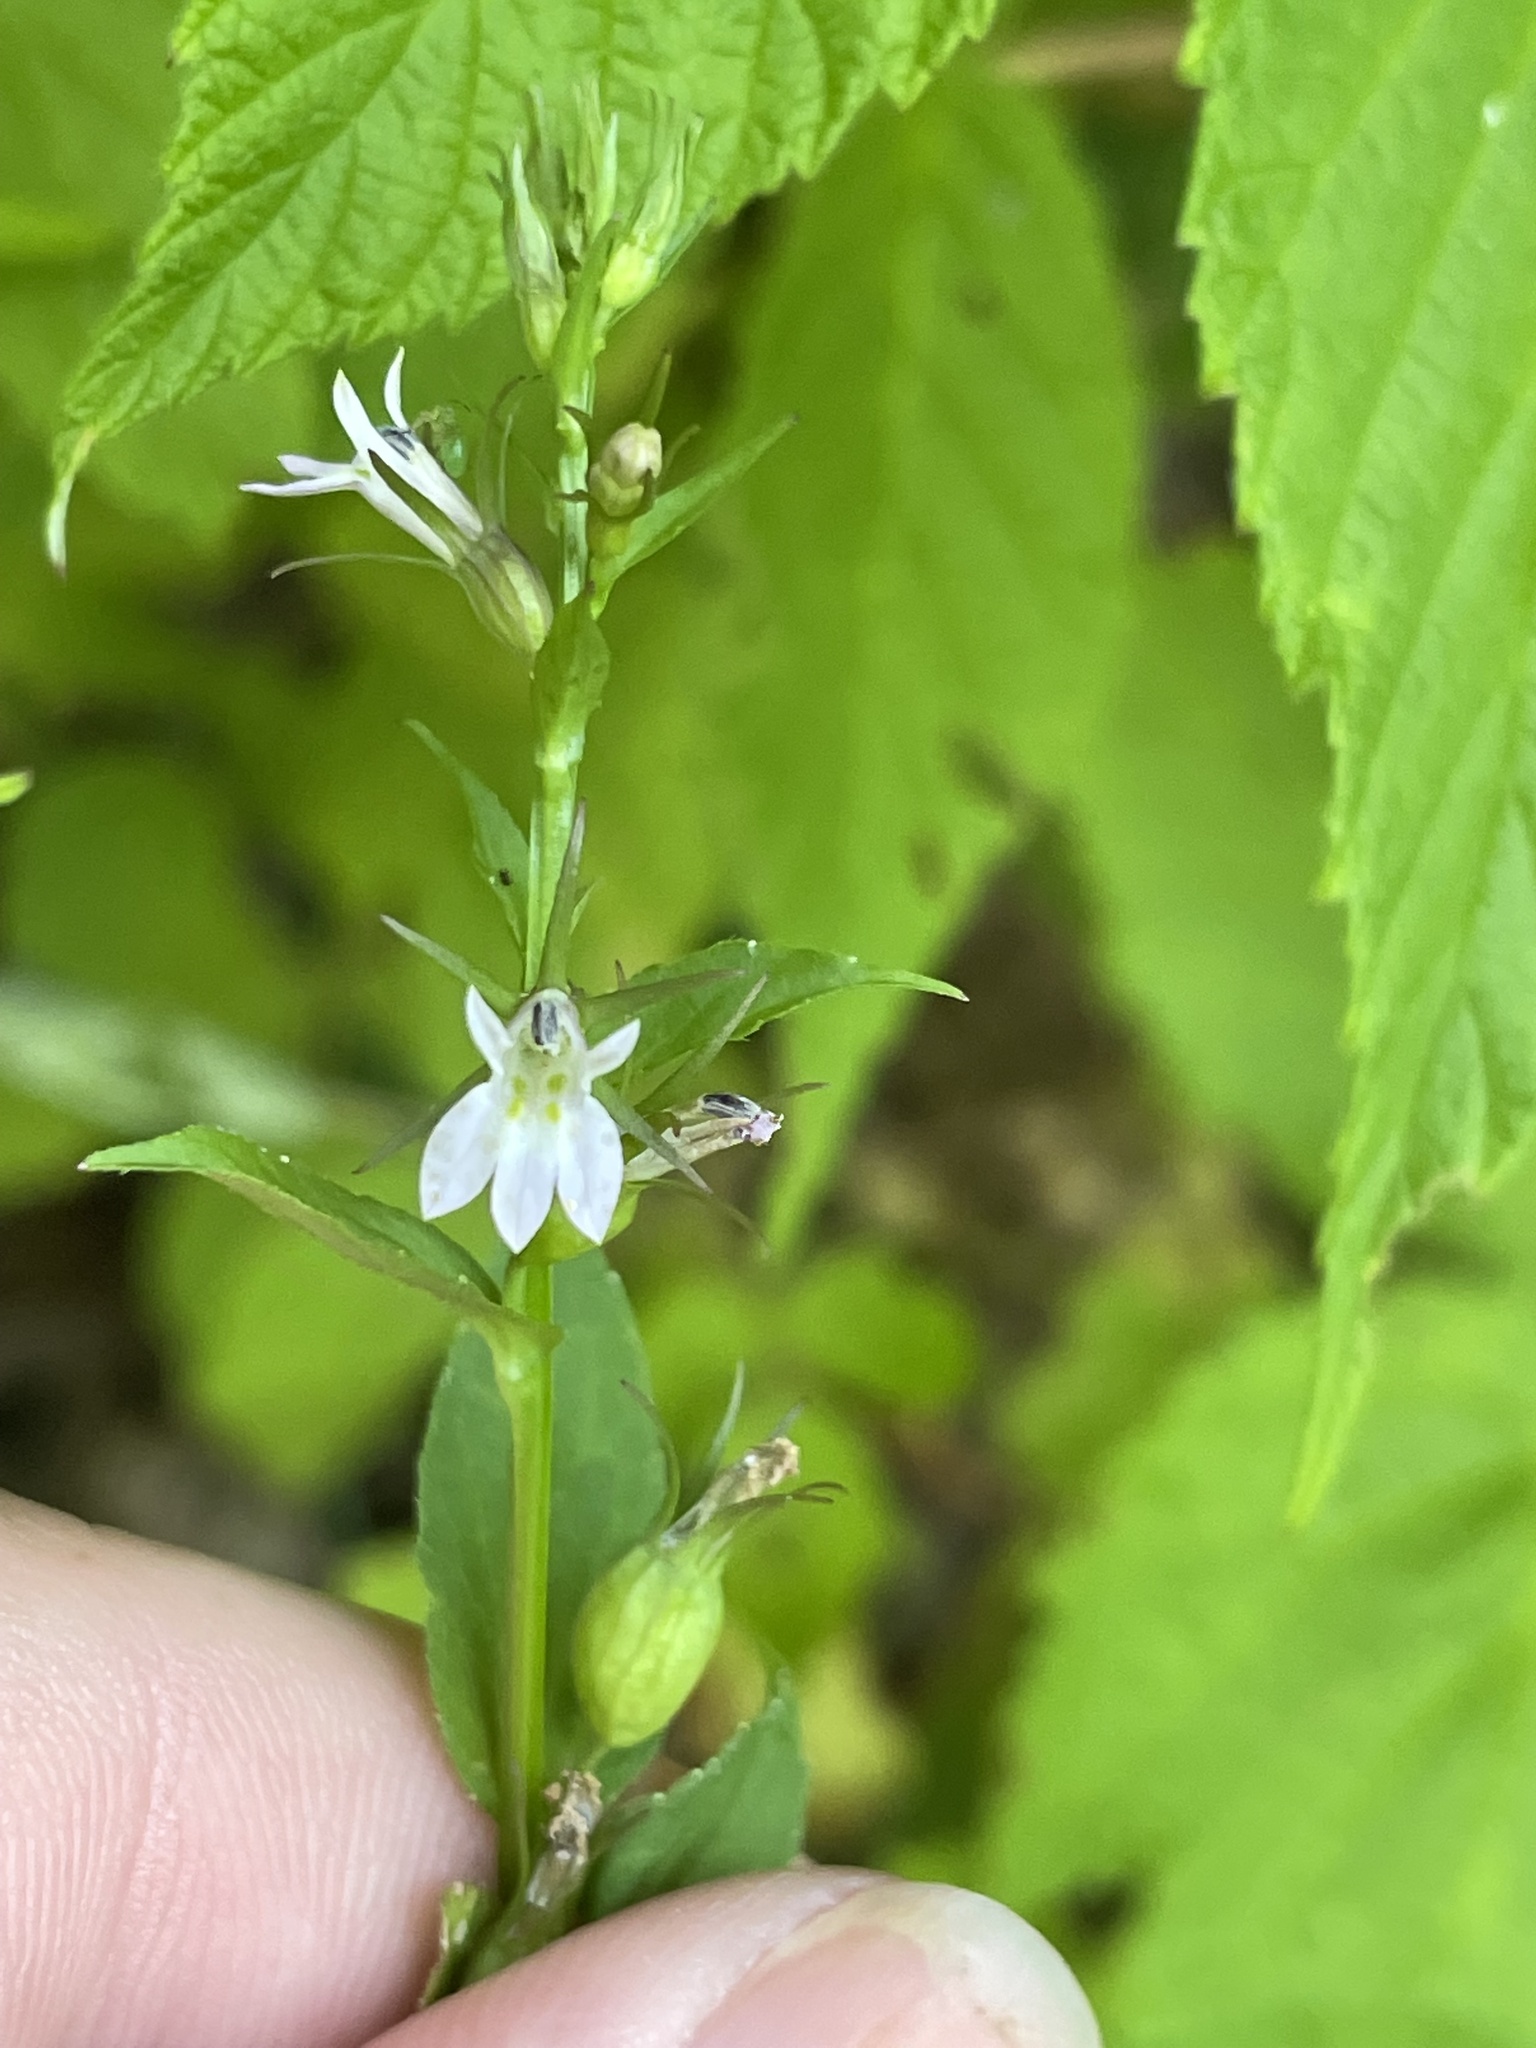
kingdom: Plantae
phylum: Tracheophyta
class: Magnoliopsida
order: Asterales
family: Campanulaceae
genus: Lobelia
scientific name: Lobelia inflata
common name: Indian tobacco
